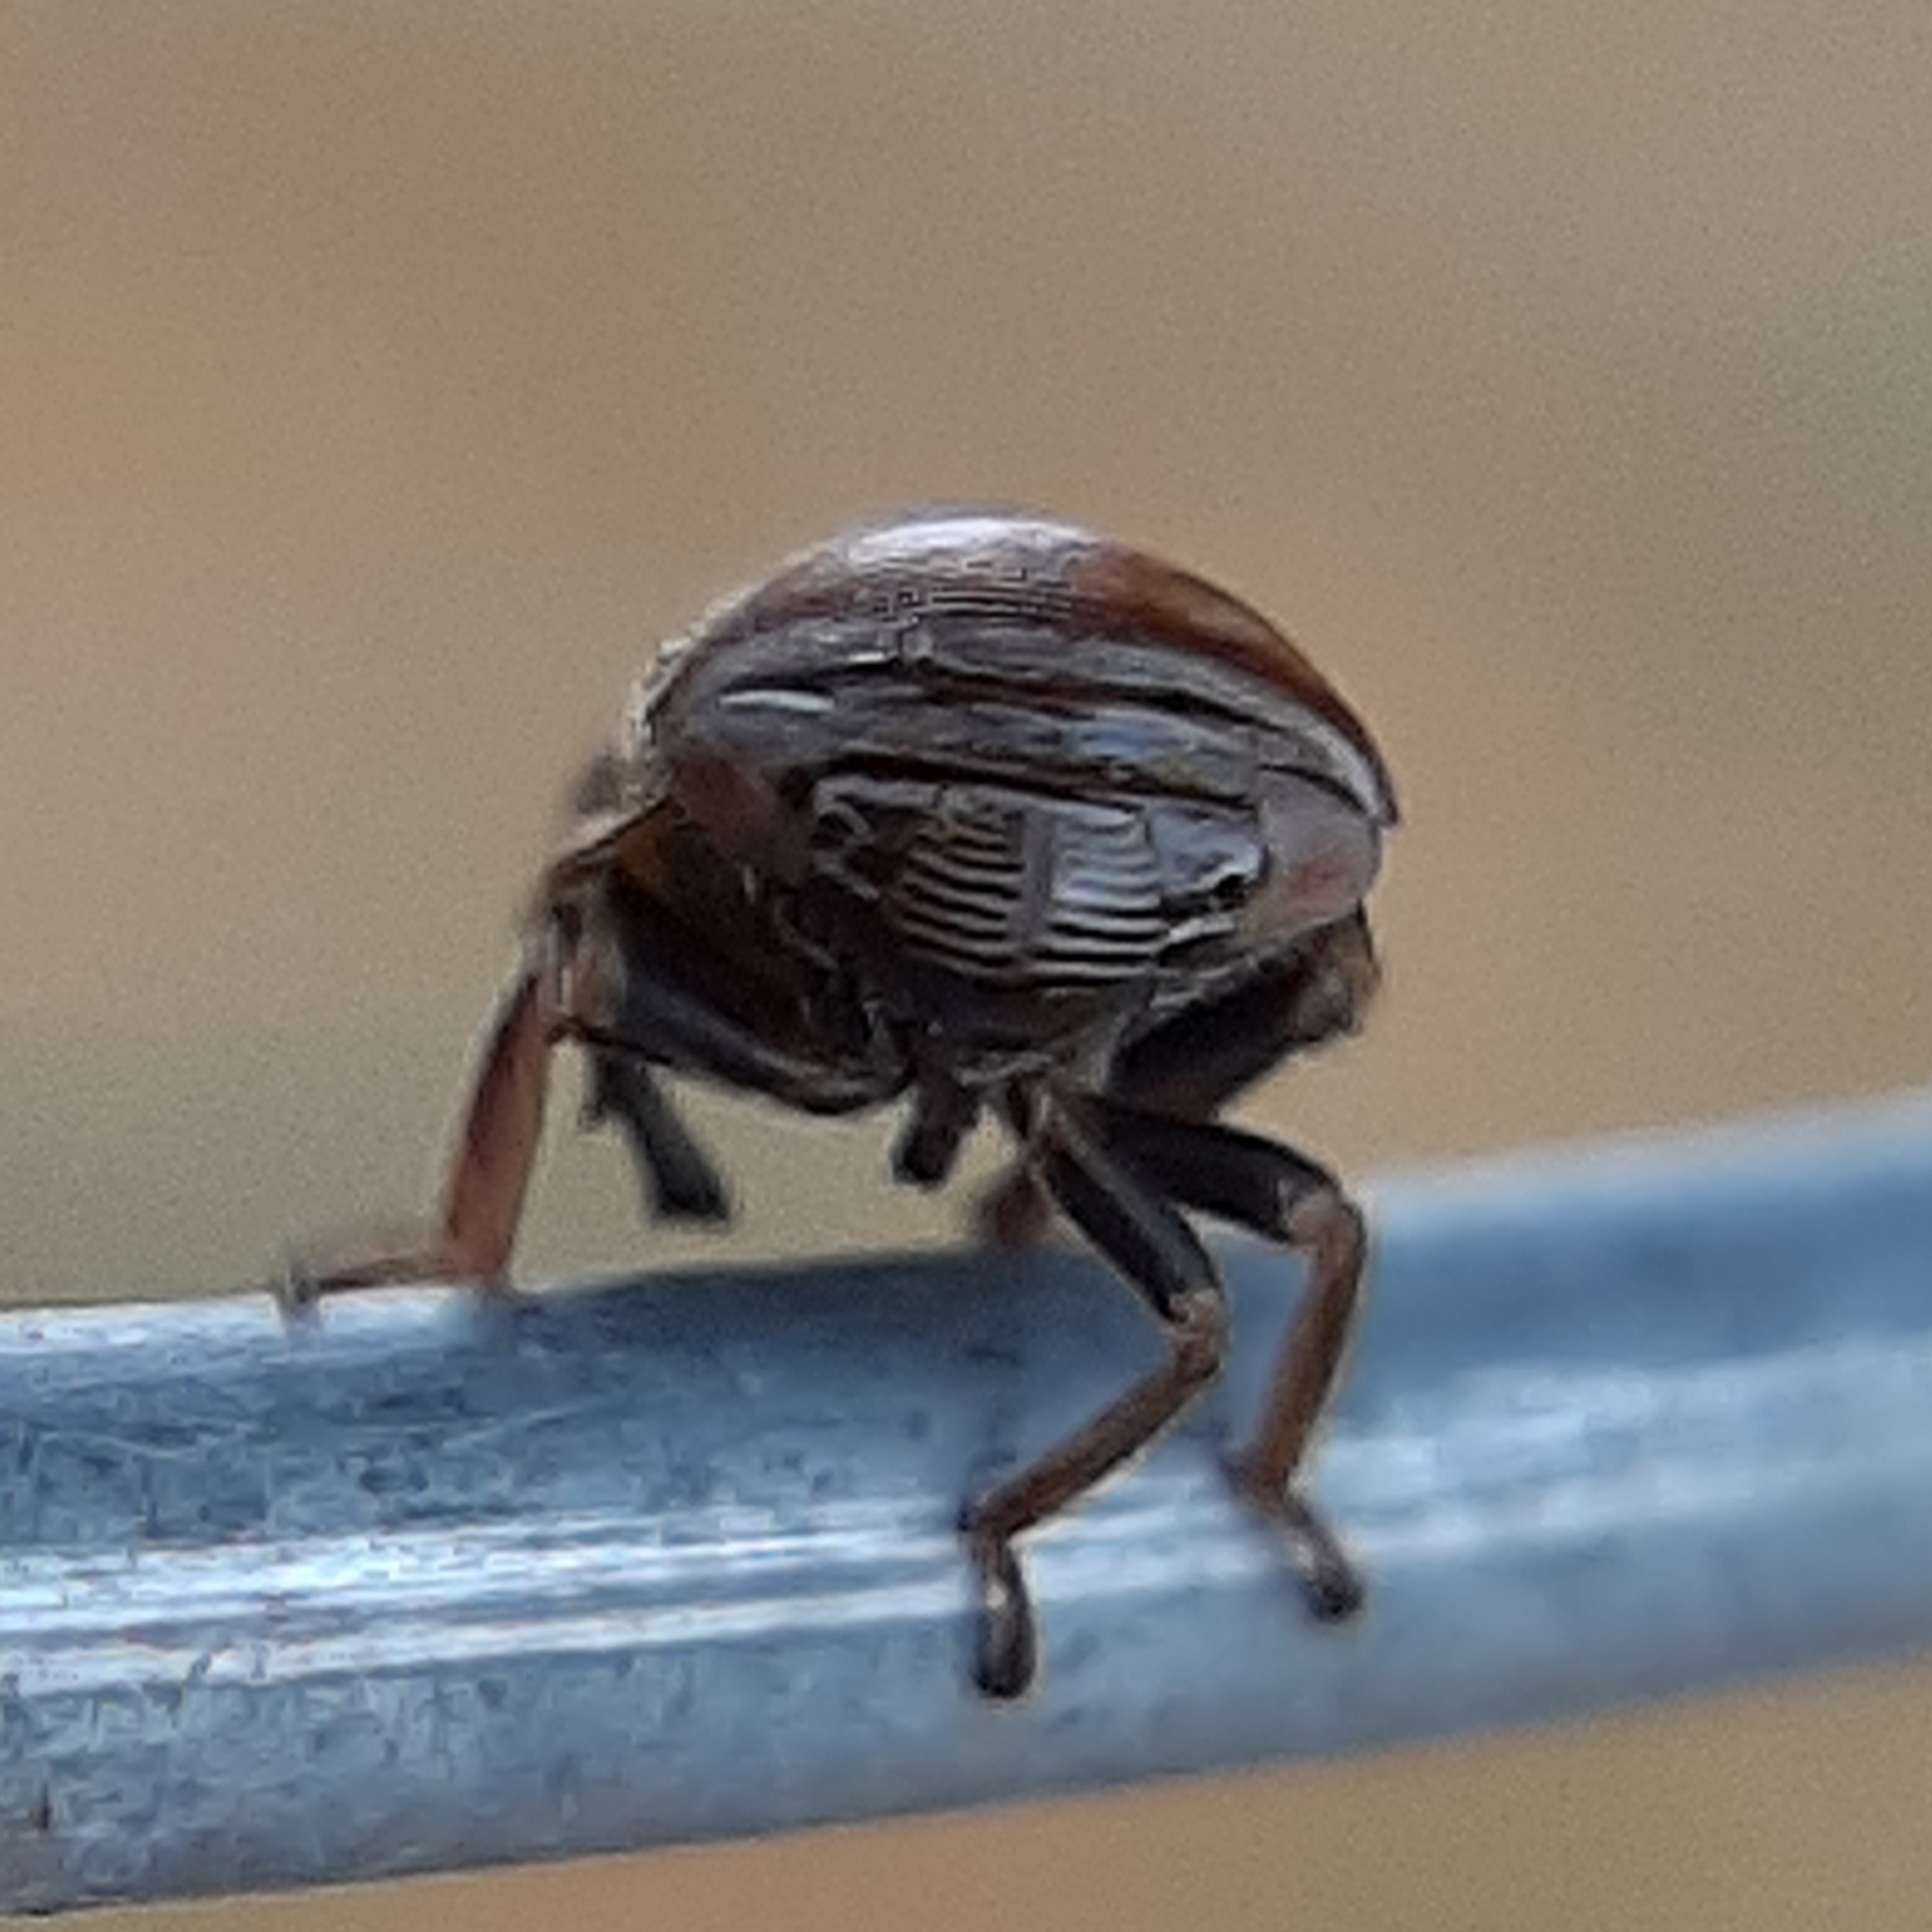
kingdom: Animalia
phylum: Arthropoda
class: Insecta
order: Hemiptera
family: Clastopteridae
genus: Clastoptera
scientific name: Clastoptera obtusa
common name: Alder spittlebug
